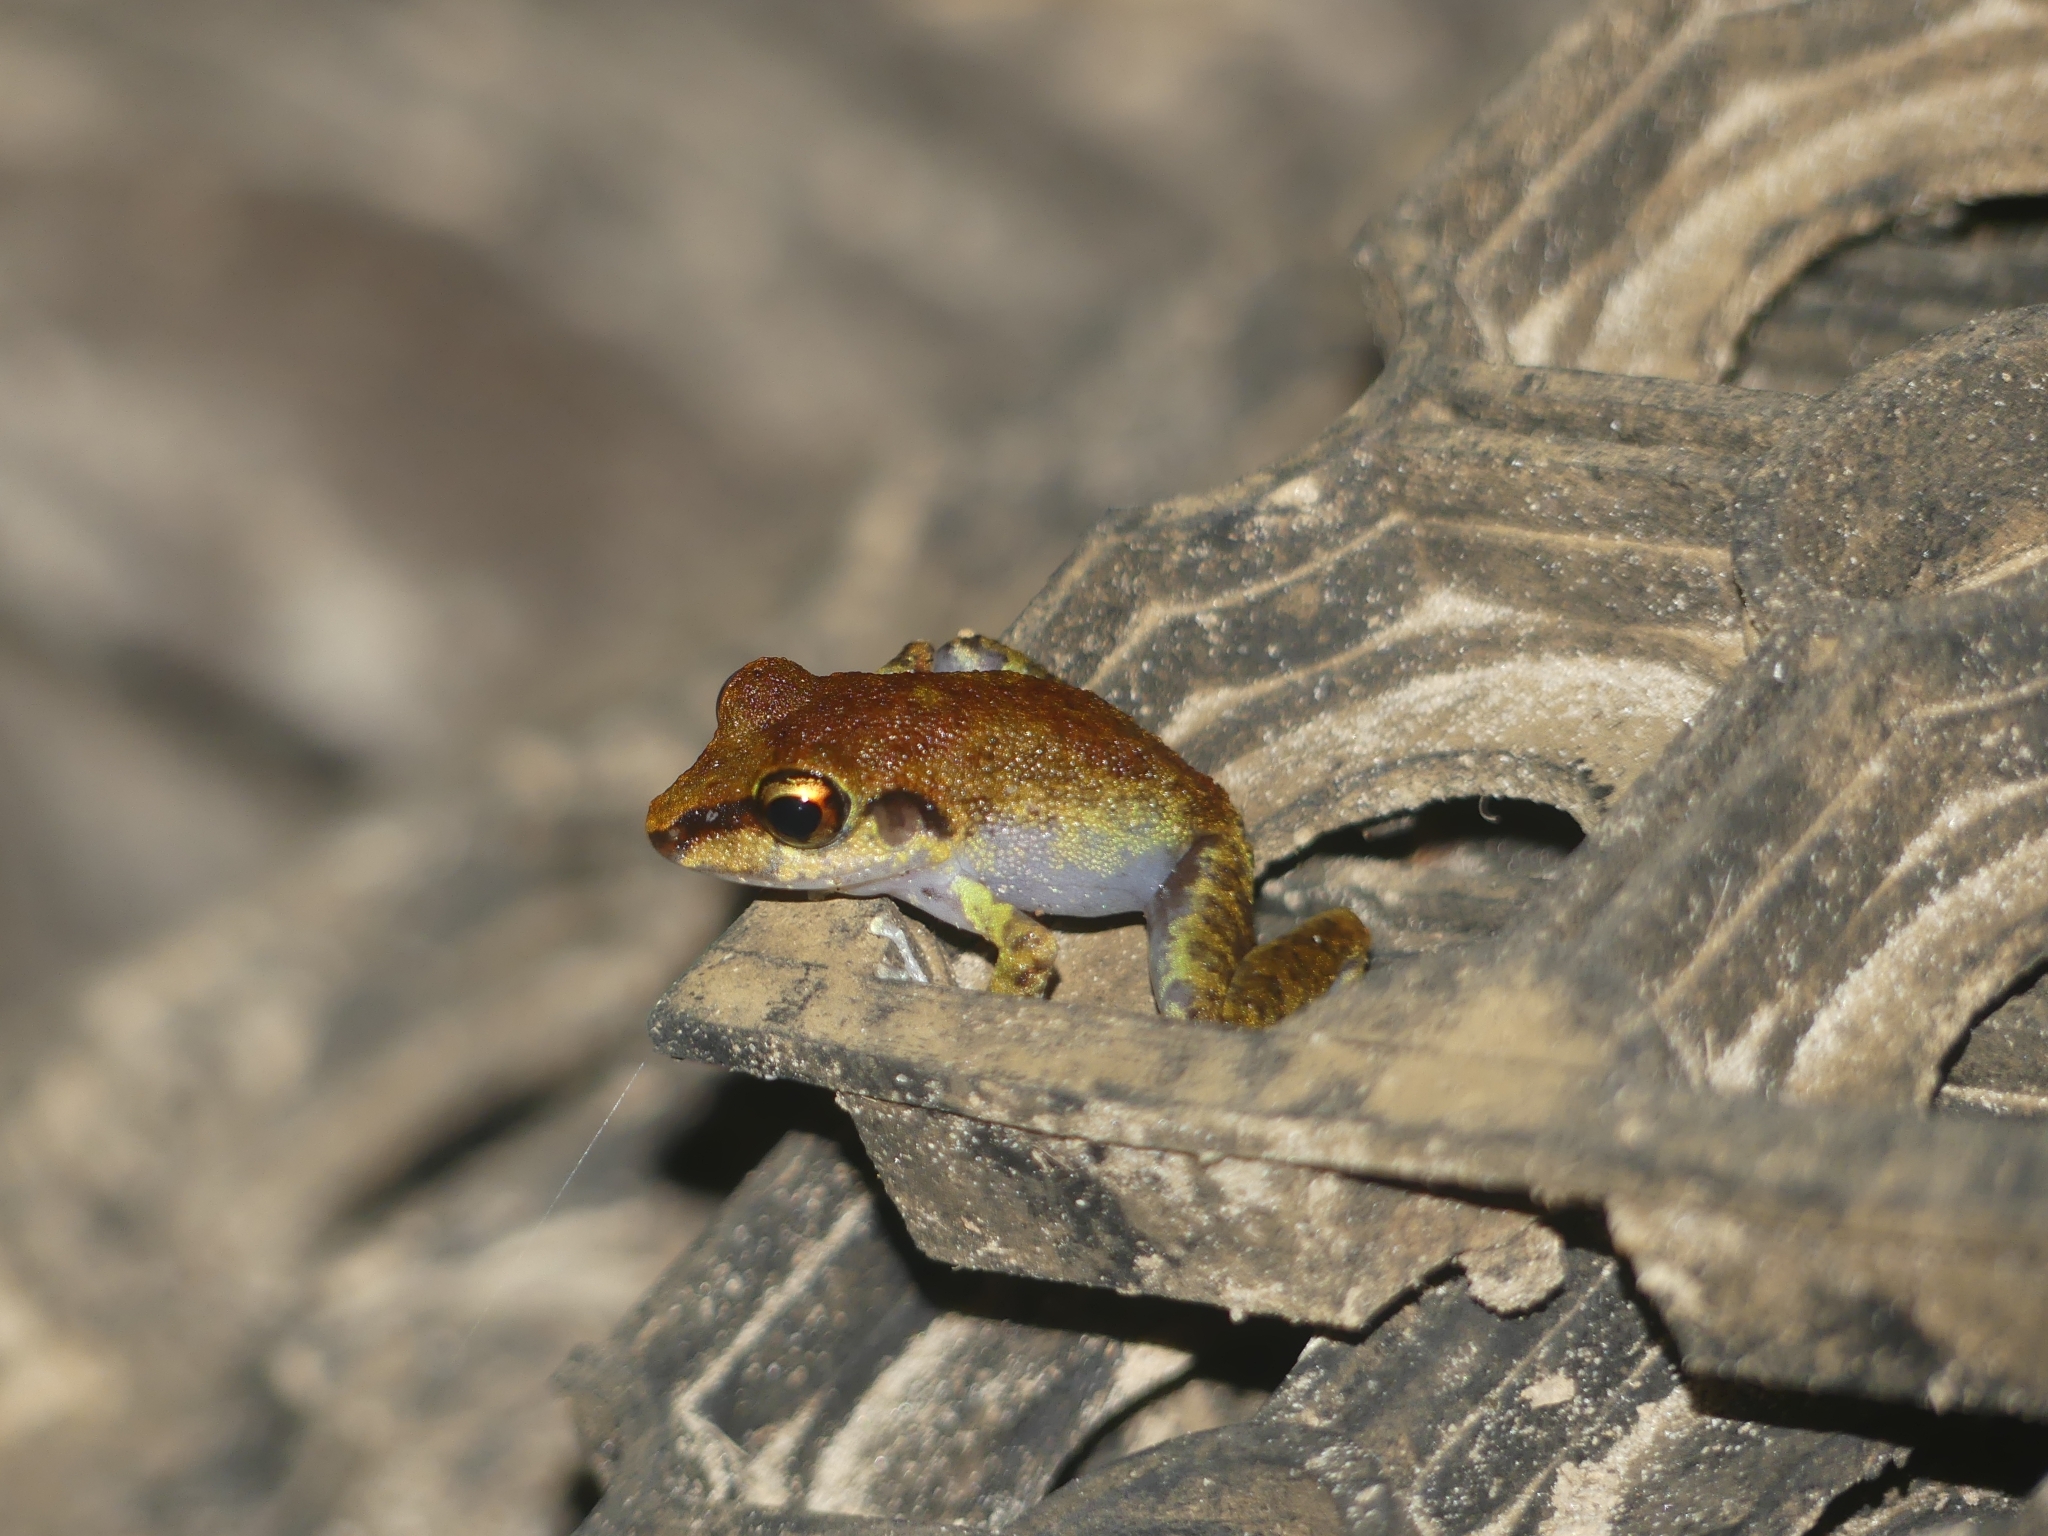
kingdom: Animalia
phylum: Chordata
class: Amphibia
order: Anura
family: Craugastoridae
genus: Pristimantis
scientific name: Pristimantis zeuctotylus
